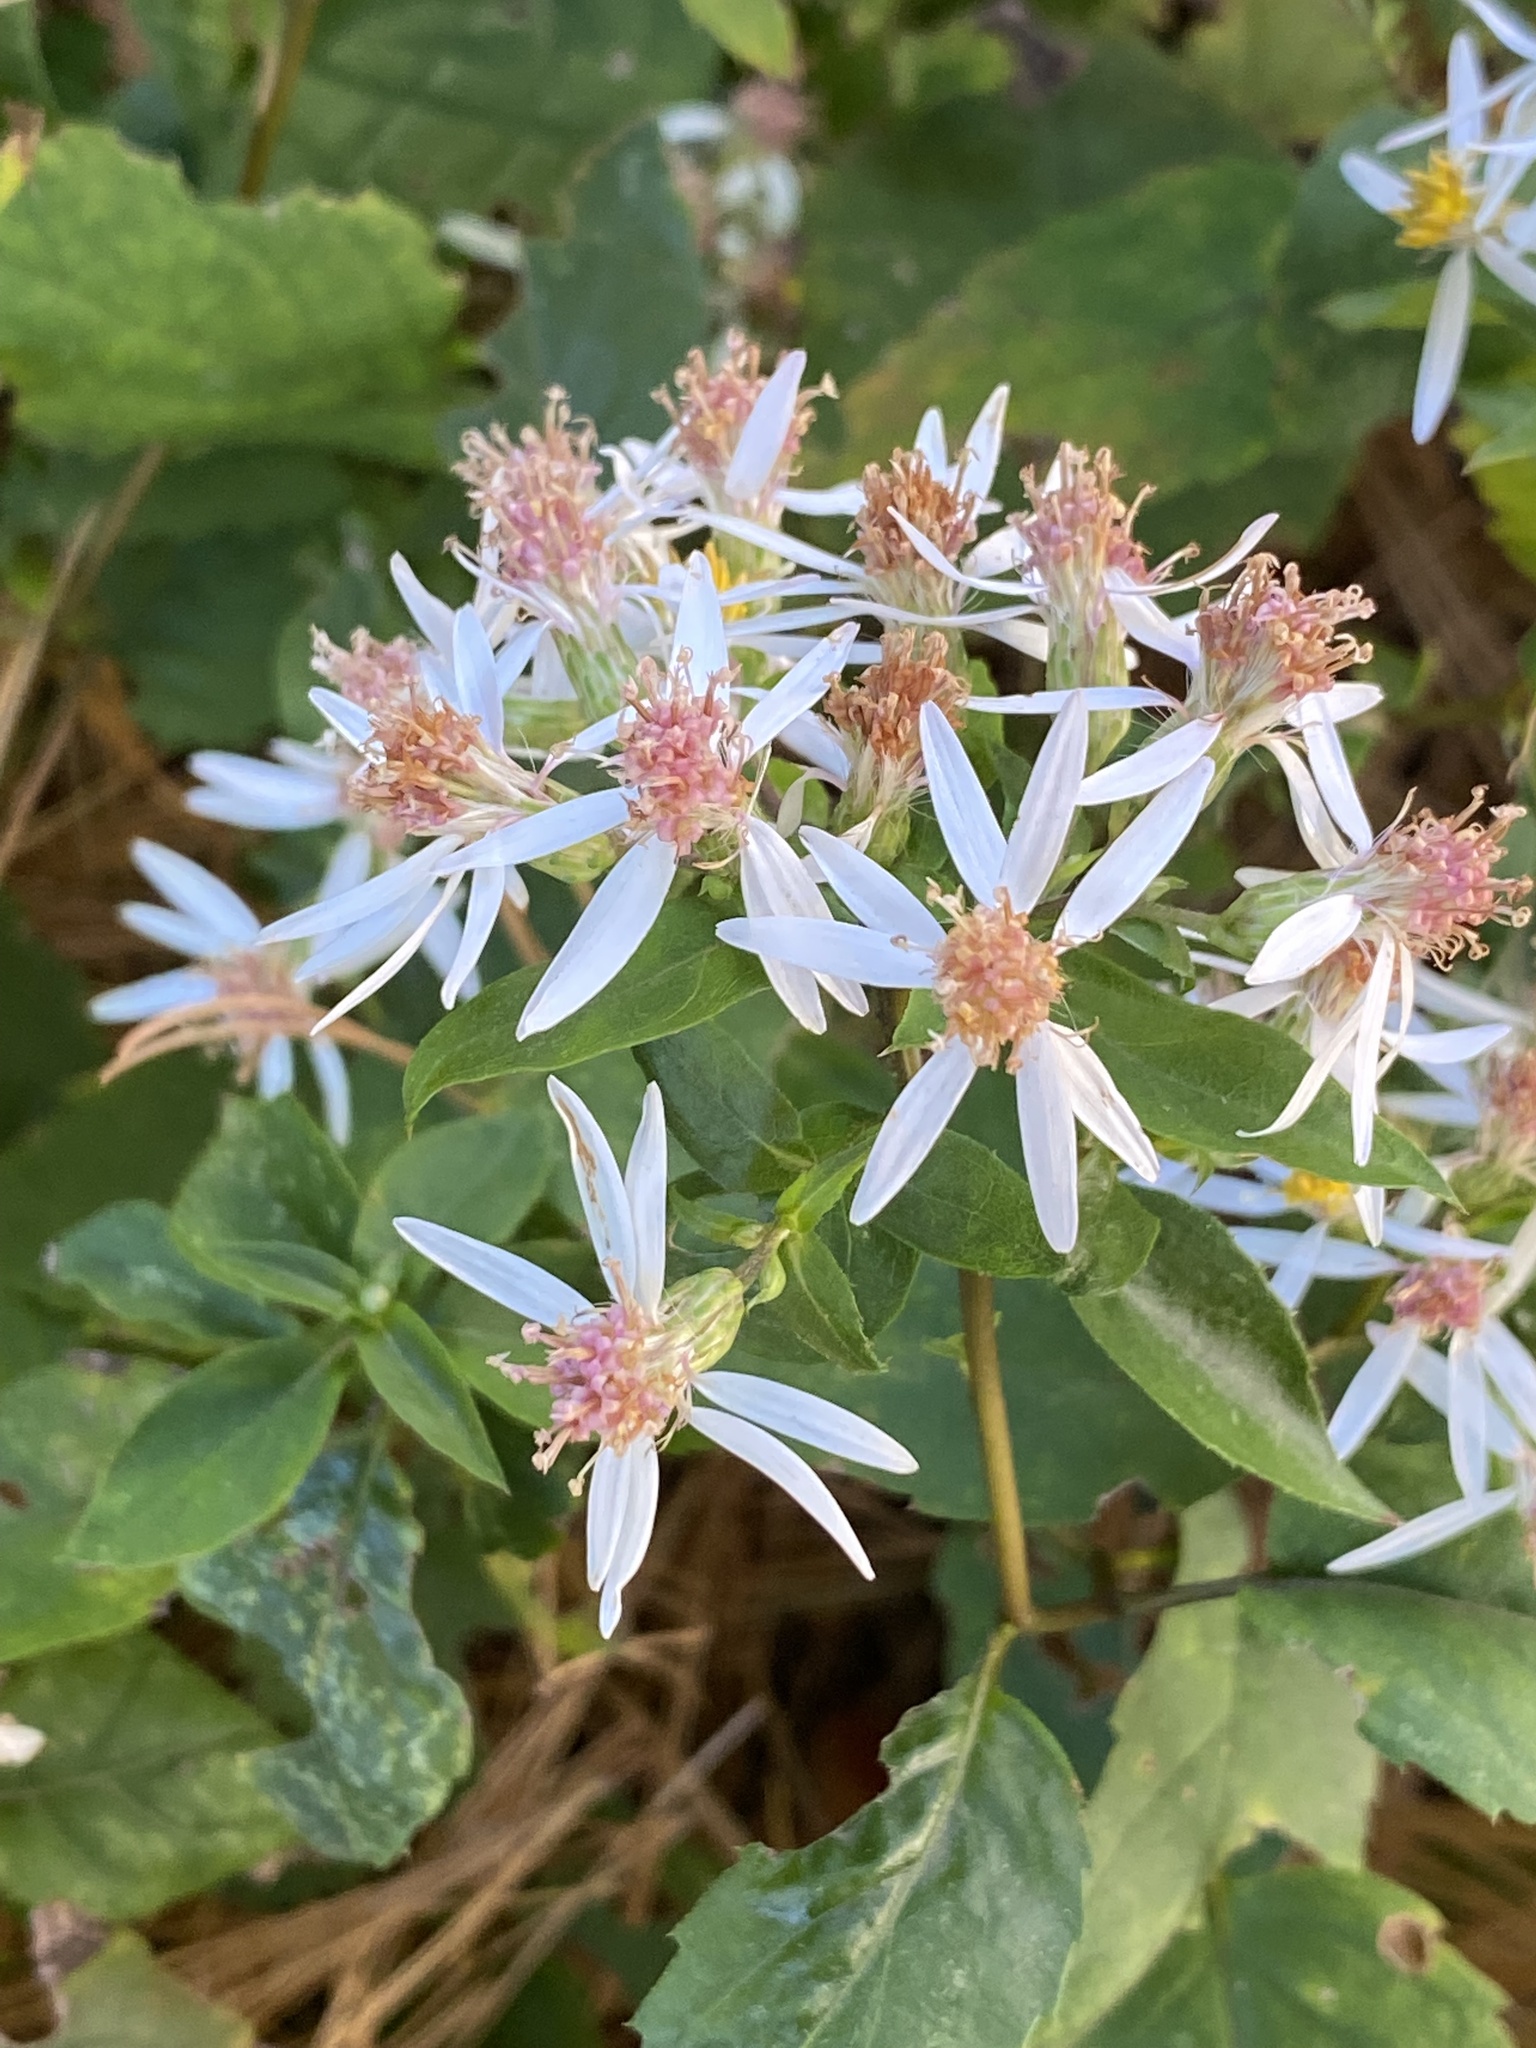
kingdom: Plantae
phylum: Tracheophyta
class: Magnoliopsida
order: Asterales
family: Asteraceae
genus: Eurybia
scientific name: Eurybia divaricata
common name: White wood aster
